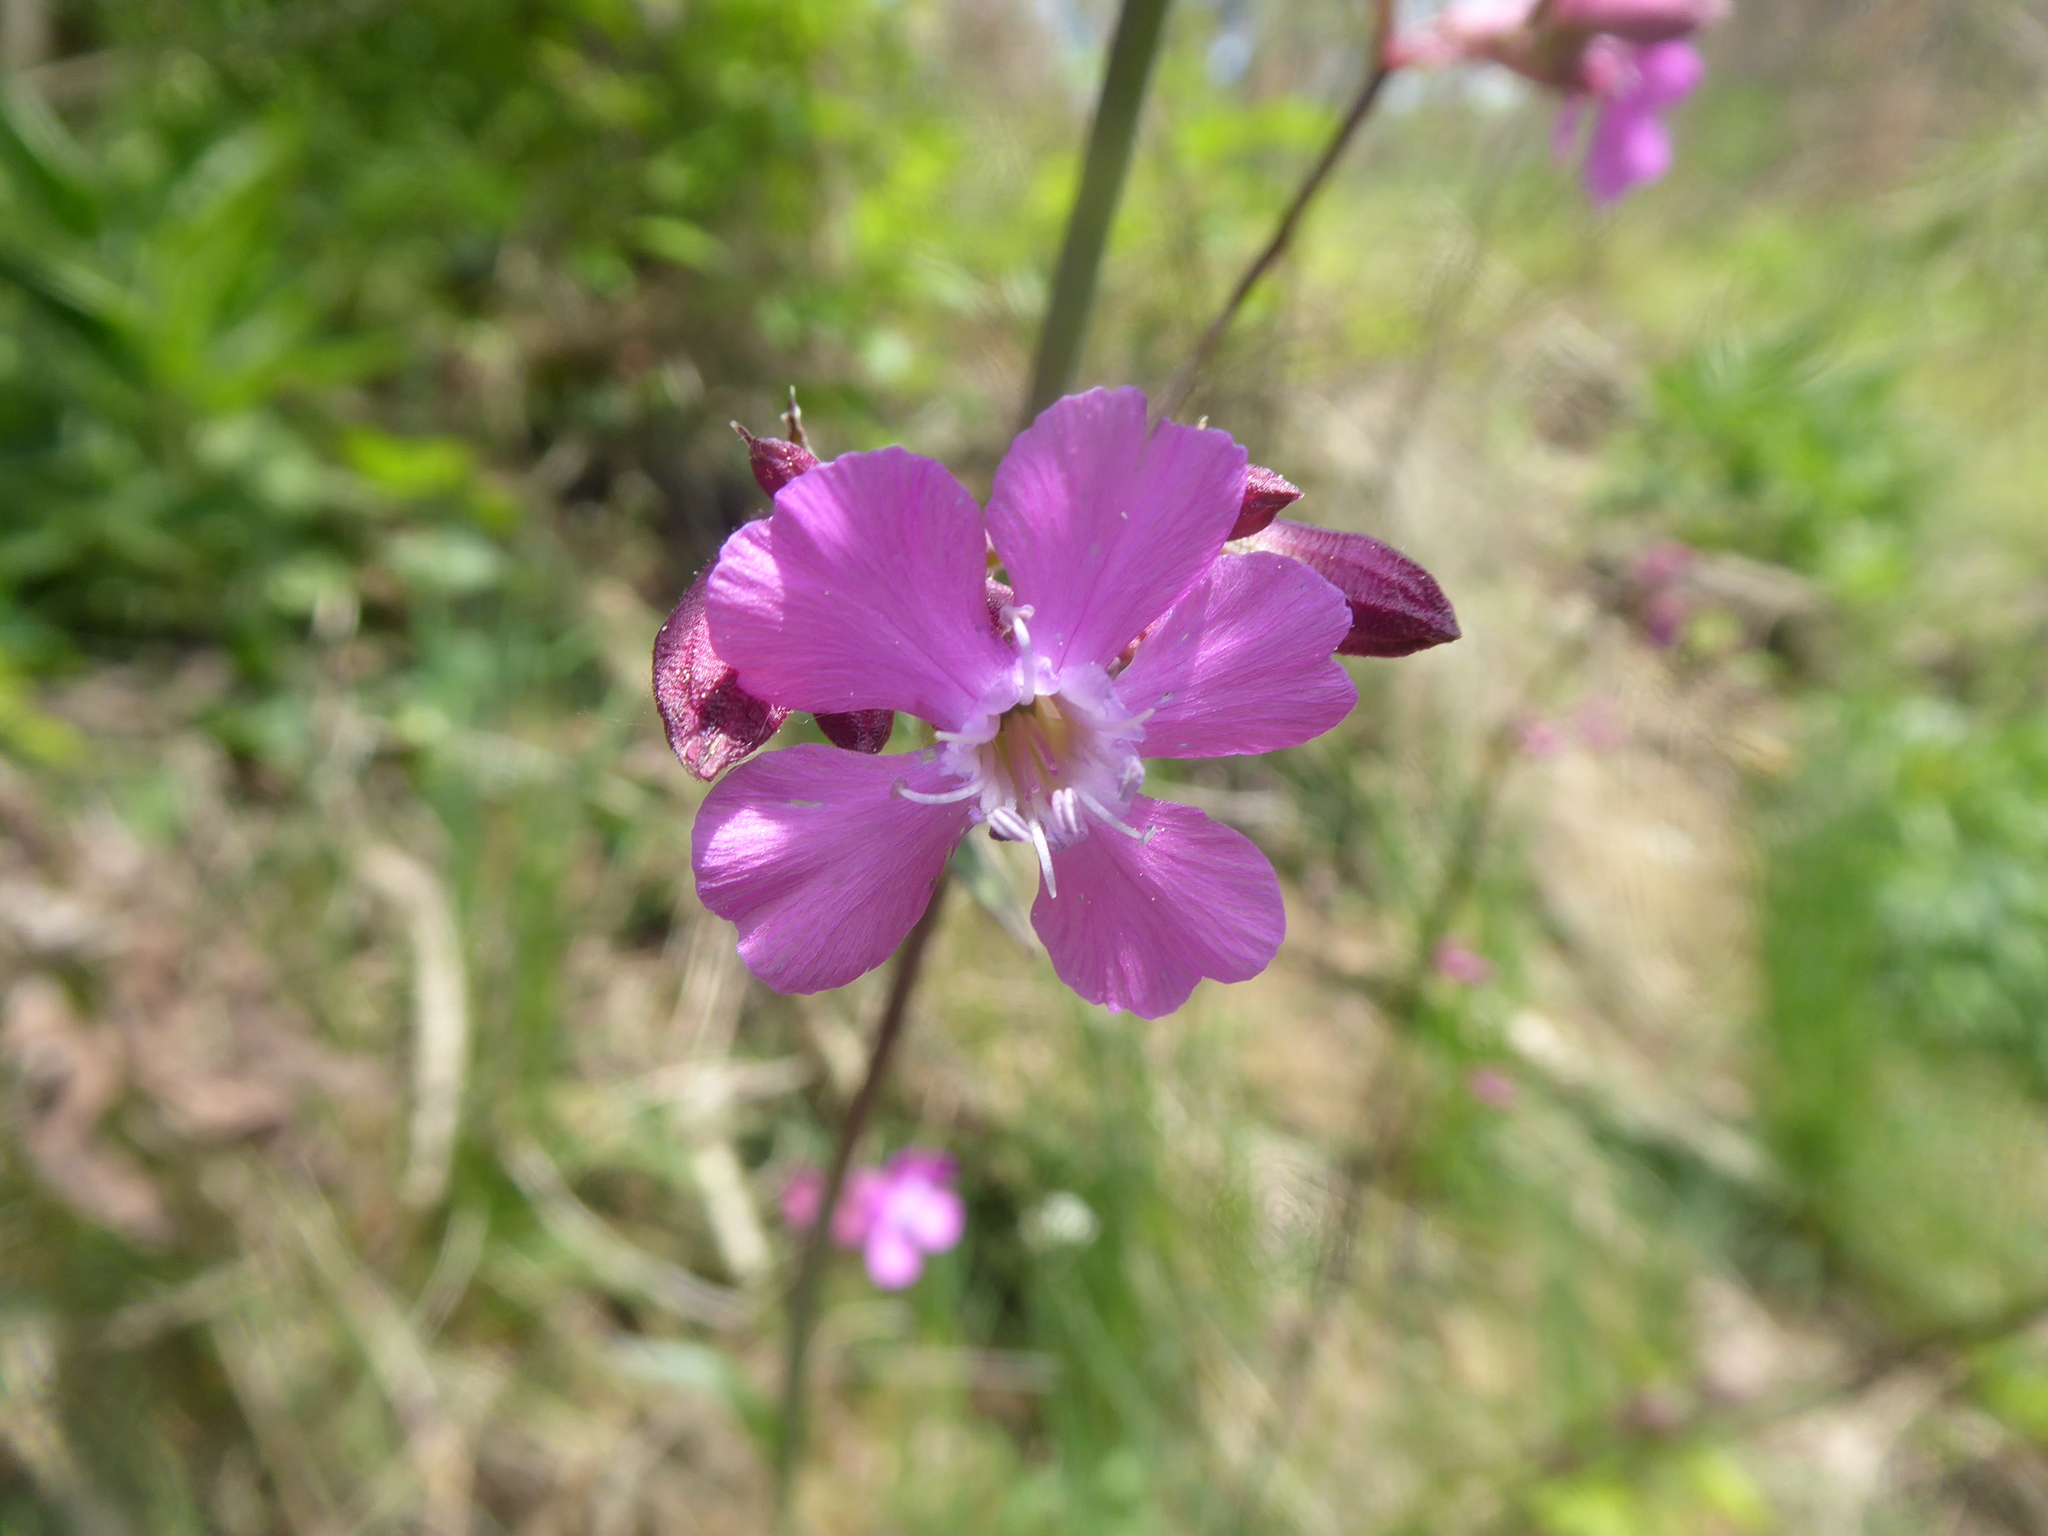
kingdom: Plantae
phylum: Tracheophyta
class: Magnoliopsida
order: Caryophyllales
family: Caryophyllaceae
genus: Viscaria
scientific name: Viscaria vulgaris
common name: Clammy campion
